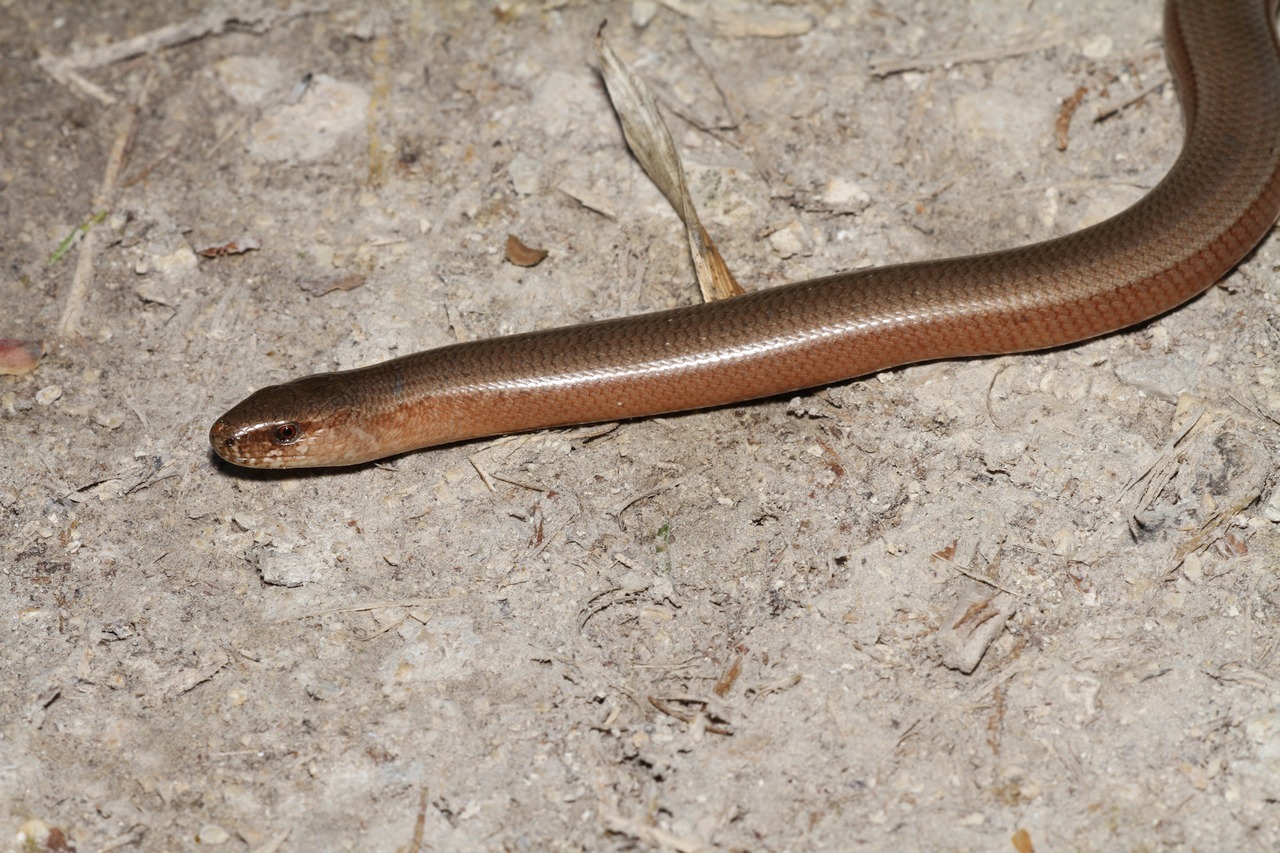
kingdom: Animalia
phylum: Chordata
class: Squamata
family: Anguidae
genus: Anguis
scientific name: Anguis fragilis
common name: Slow worm
